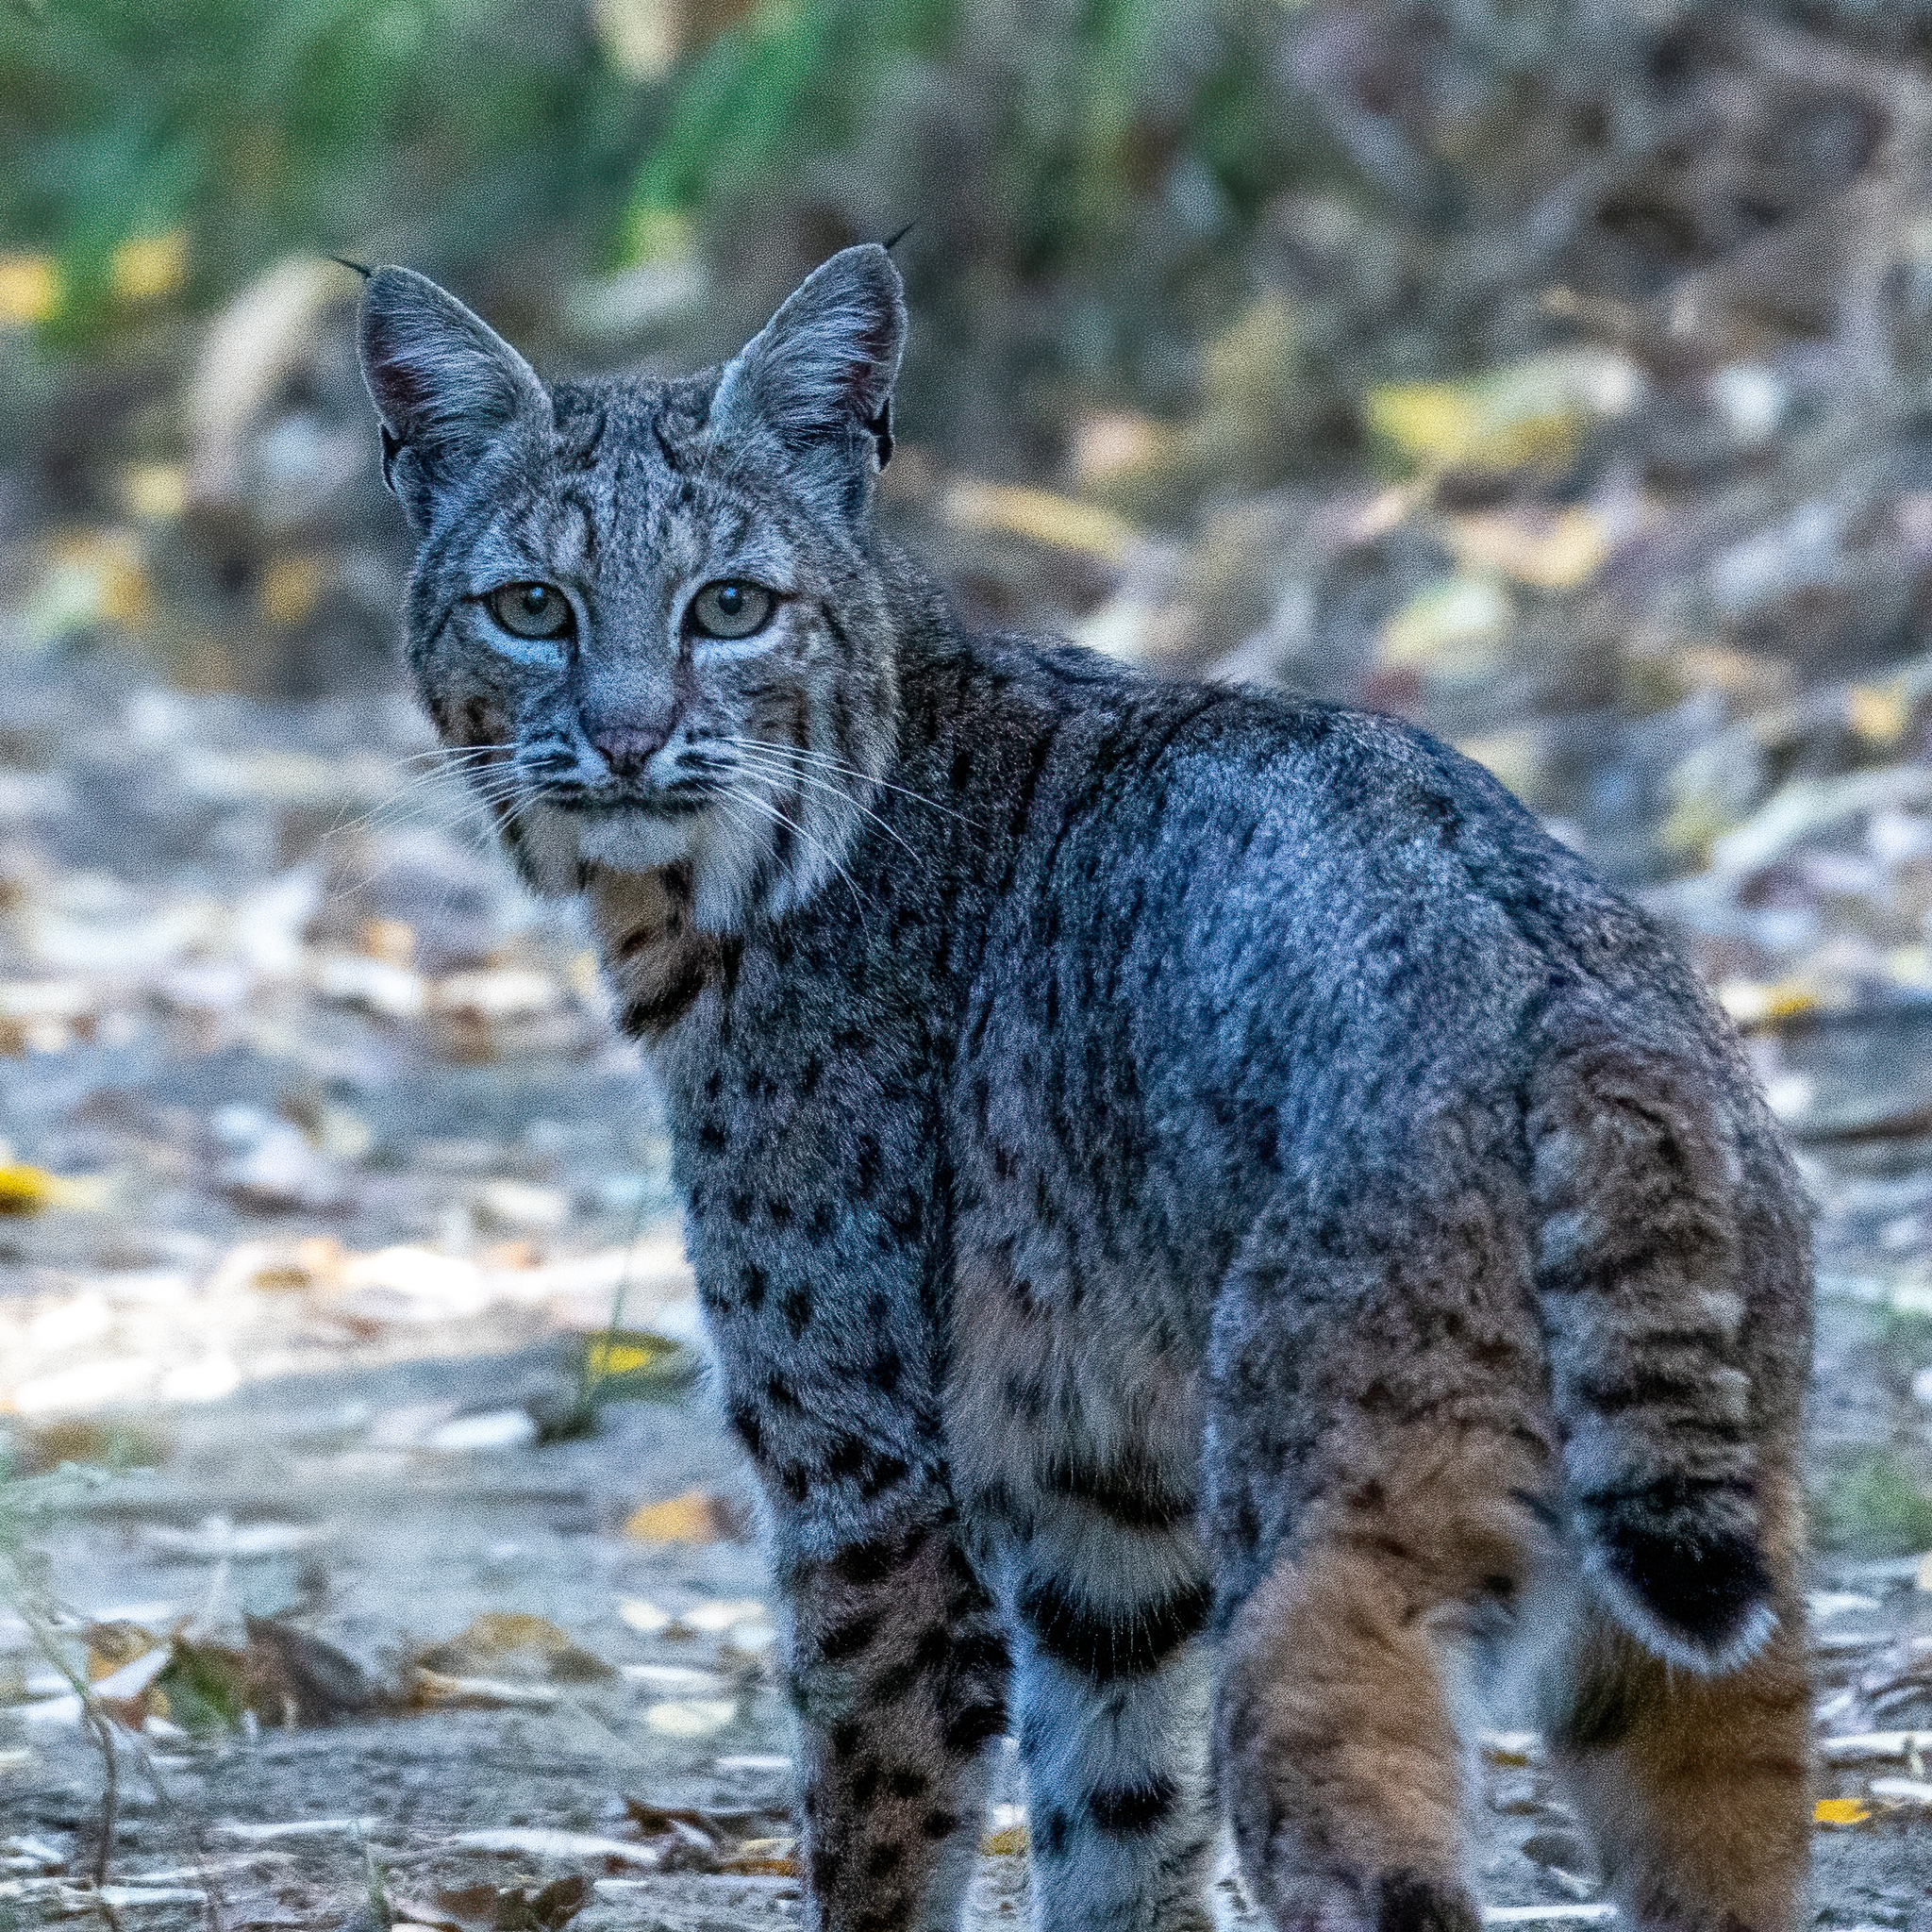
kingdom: Animalia
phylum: Chordata
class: Mammalia
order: Carnivora
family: Felidae
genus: Lynx
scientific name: Lynx rufus
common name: Bobcat
